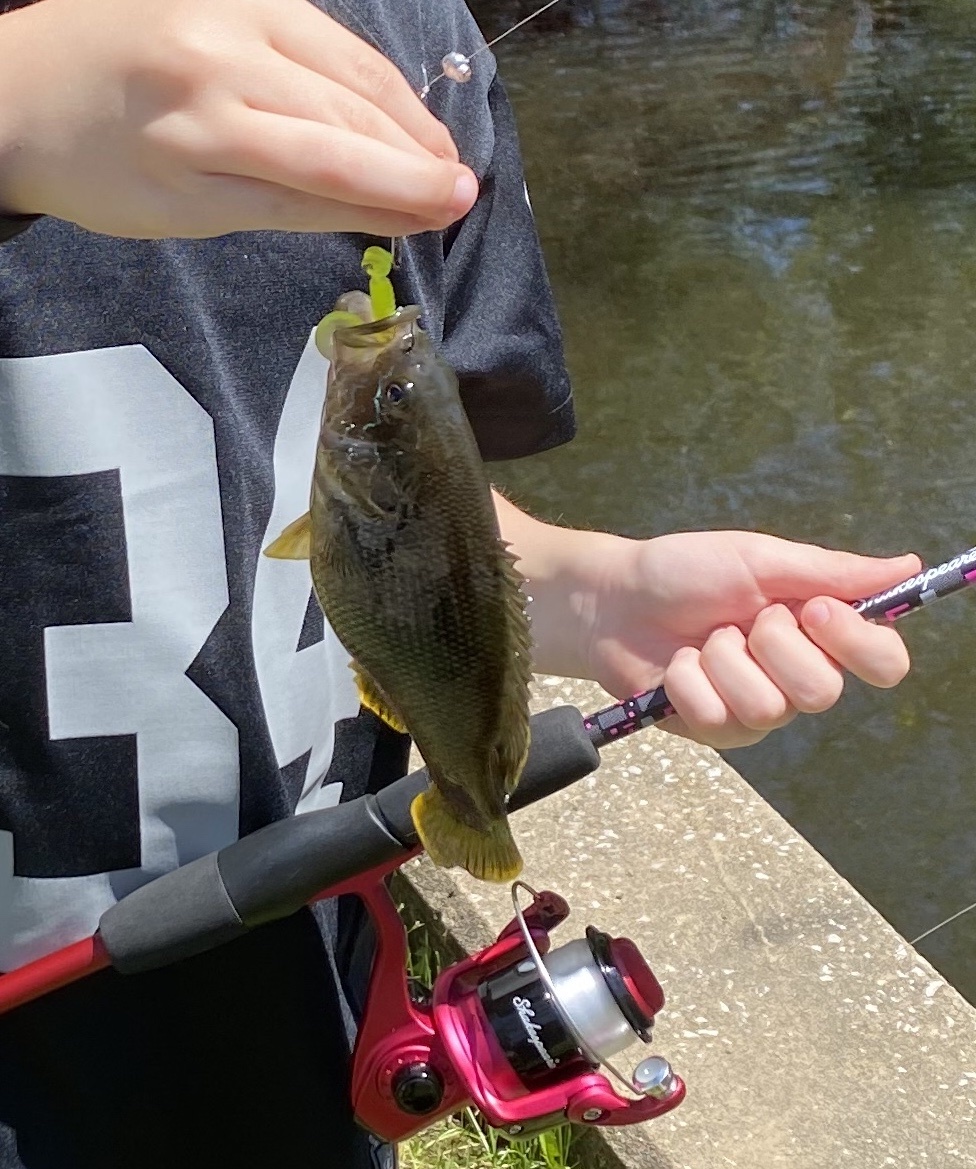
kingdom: Animalia
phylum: Chordata
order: Perciformes
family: Centrarchidae
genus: Lepomis
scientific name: Lepomis cyanellus
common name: Green sunfish
